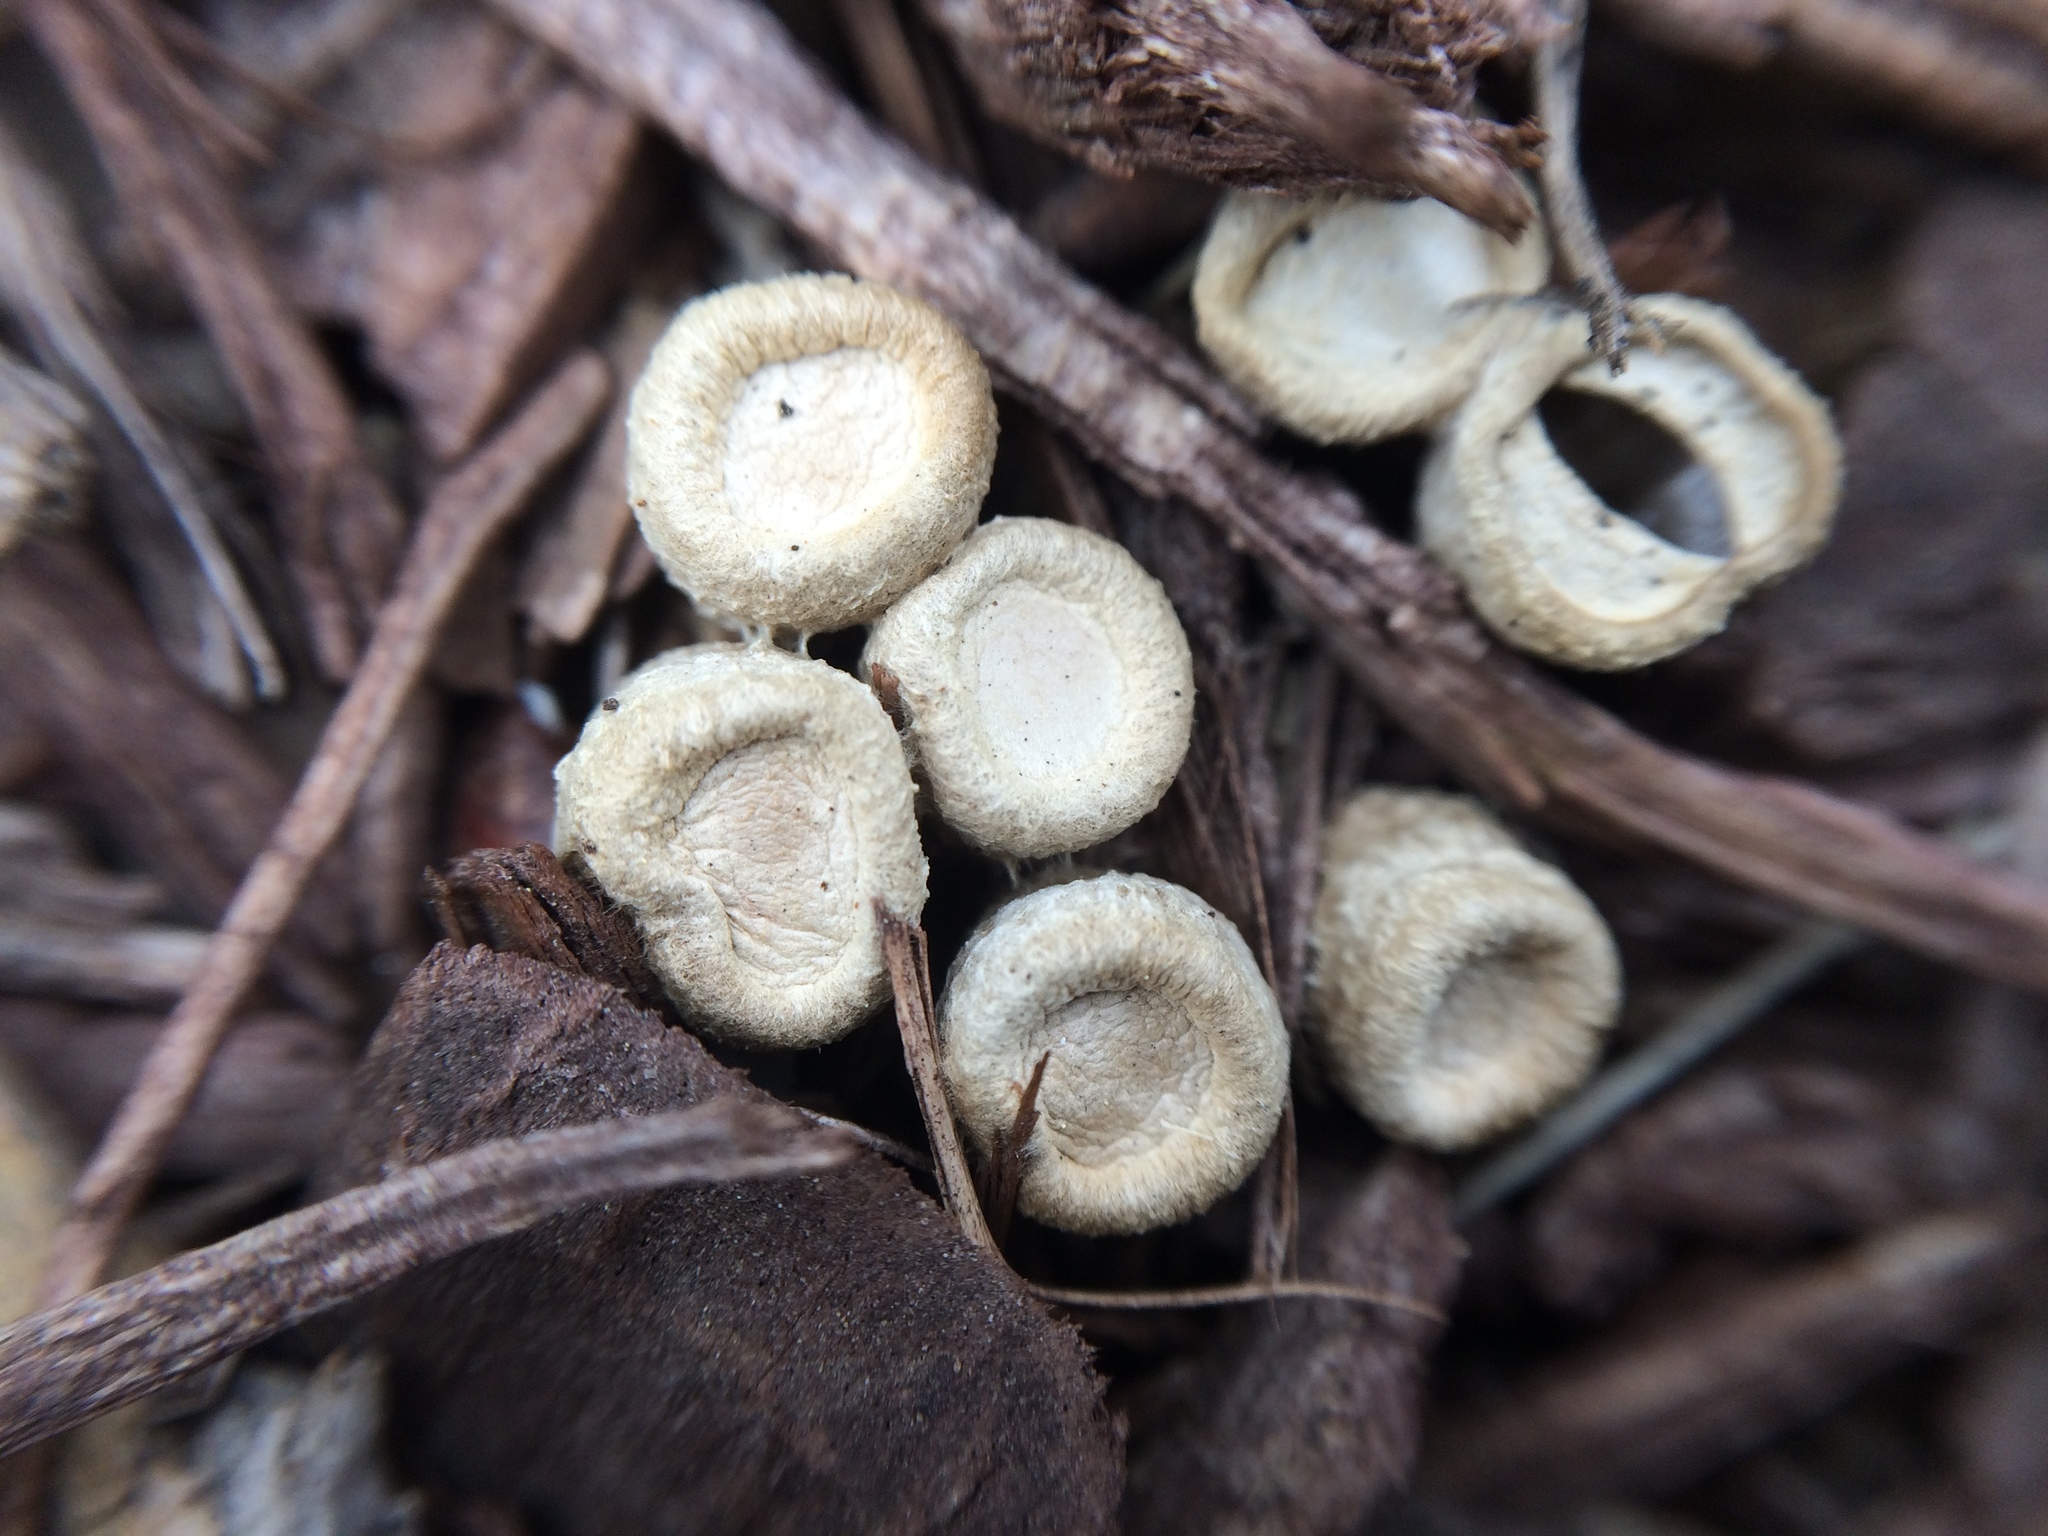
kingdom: Fungi
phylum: Basidiomycota
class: Agaricomycetes
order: Agaricales
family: Agaricaceae
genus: Cyathus
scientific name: Cyathus olla
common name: Field bird's nest
